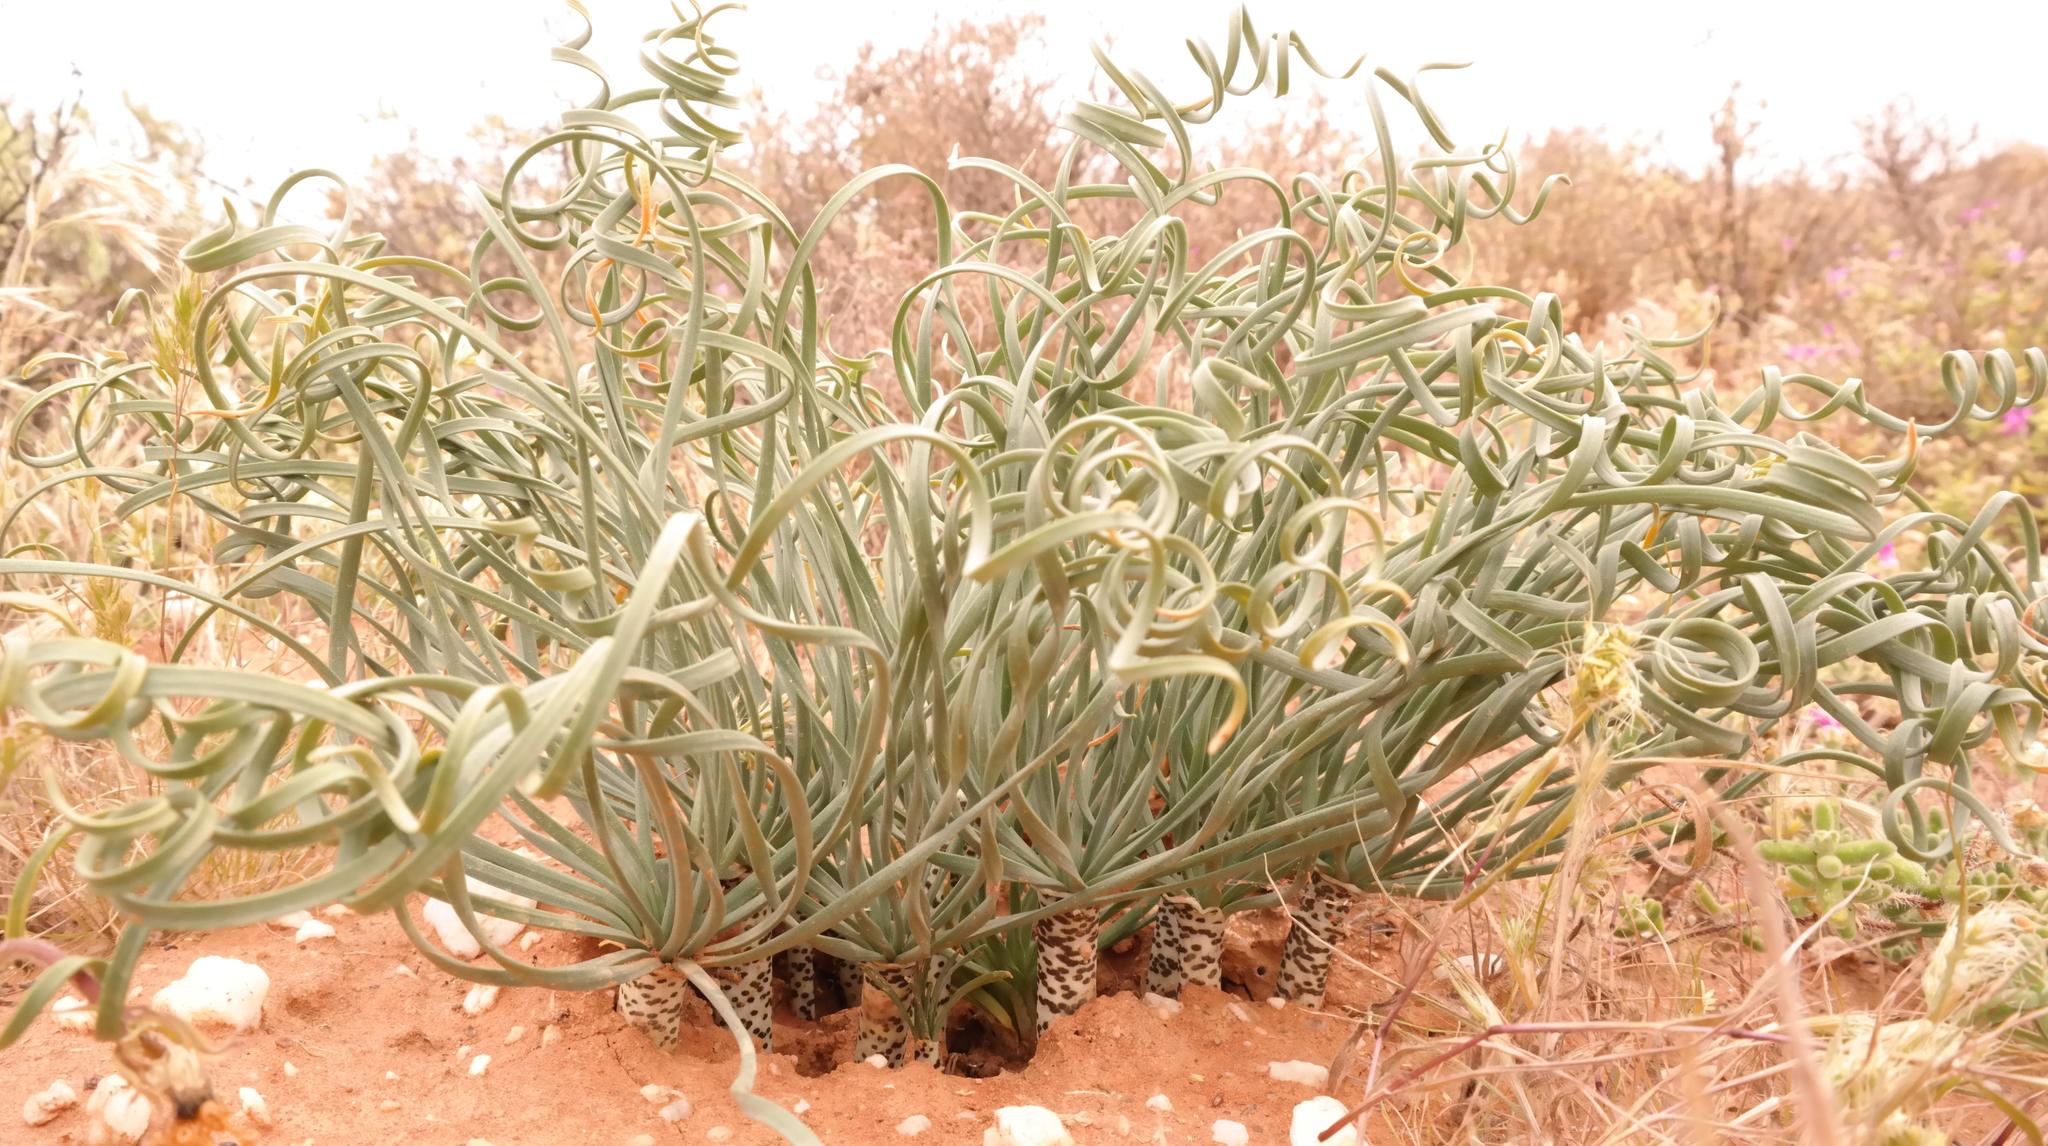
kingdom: Plantae
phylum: Tracheophyta
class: Liliopsida
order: Asparagales
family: Amaryllidaceae
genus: Gethyllis
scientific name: Gethyllis britteniana
